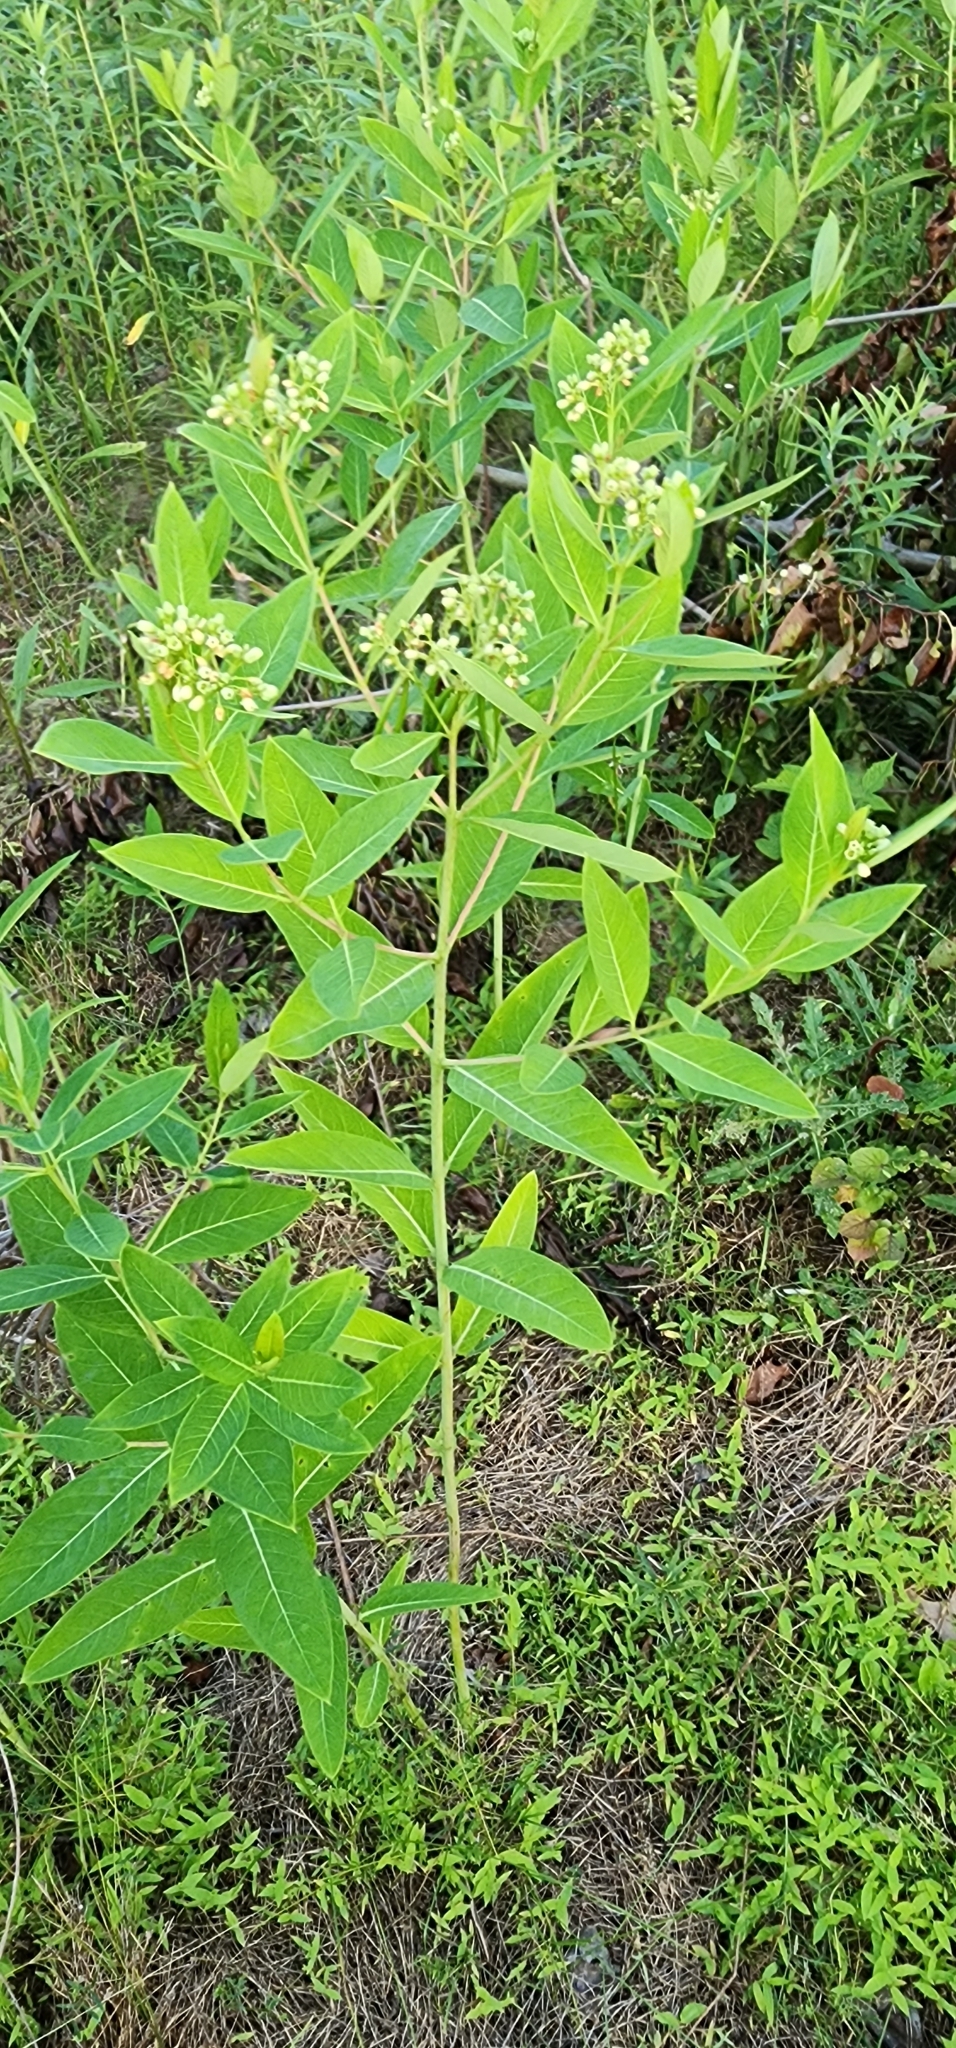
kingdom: Plantae
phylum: Tracheophyta
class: Magnoliopsida
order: Gentianales
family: Apocynaceae
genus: Apocynum
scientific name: Apocynum cannabinum
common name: Hemp dogbane
